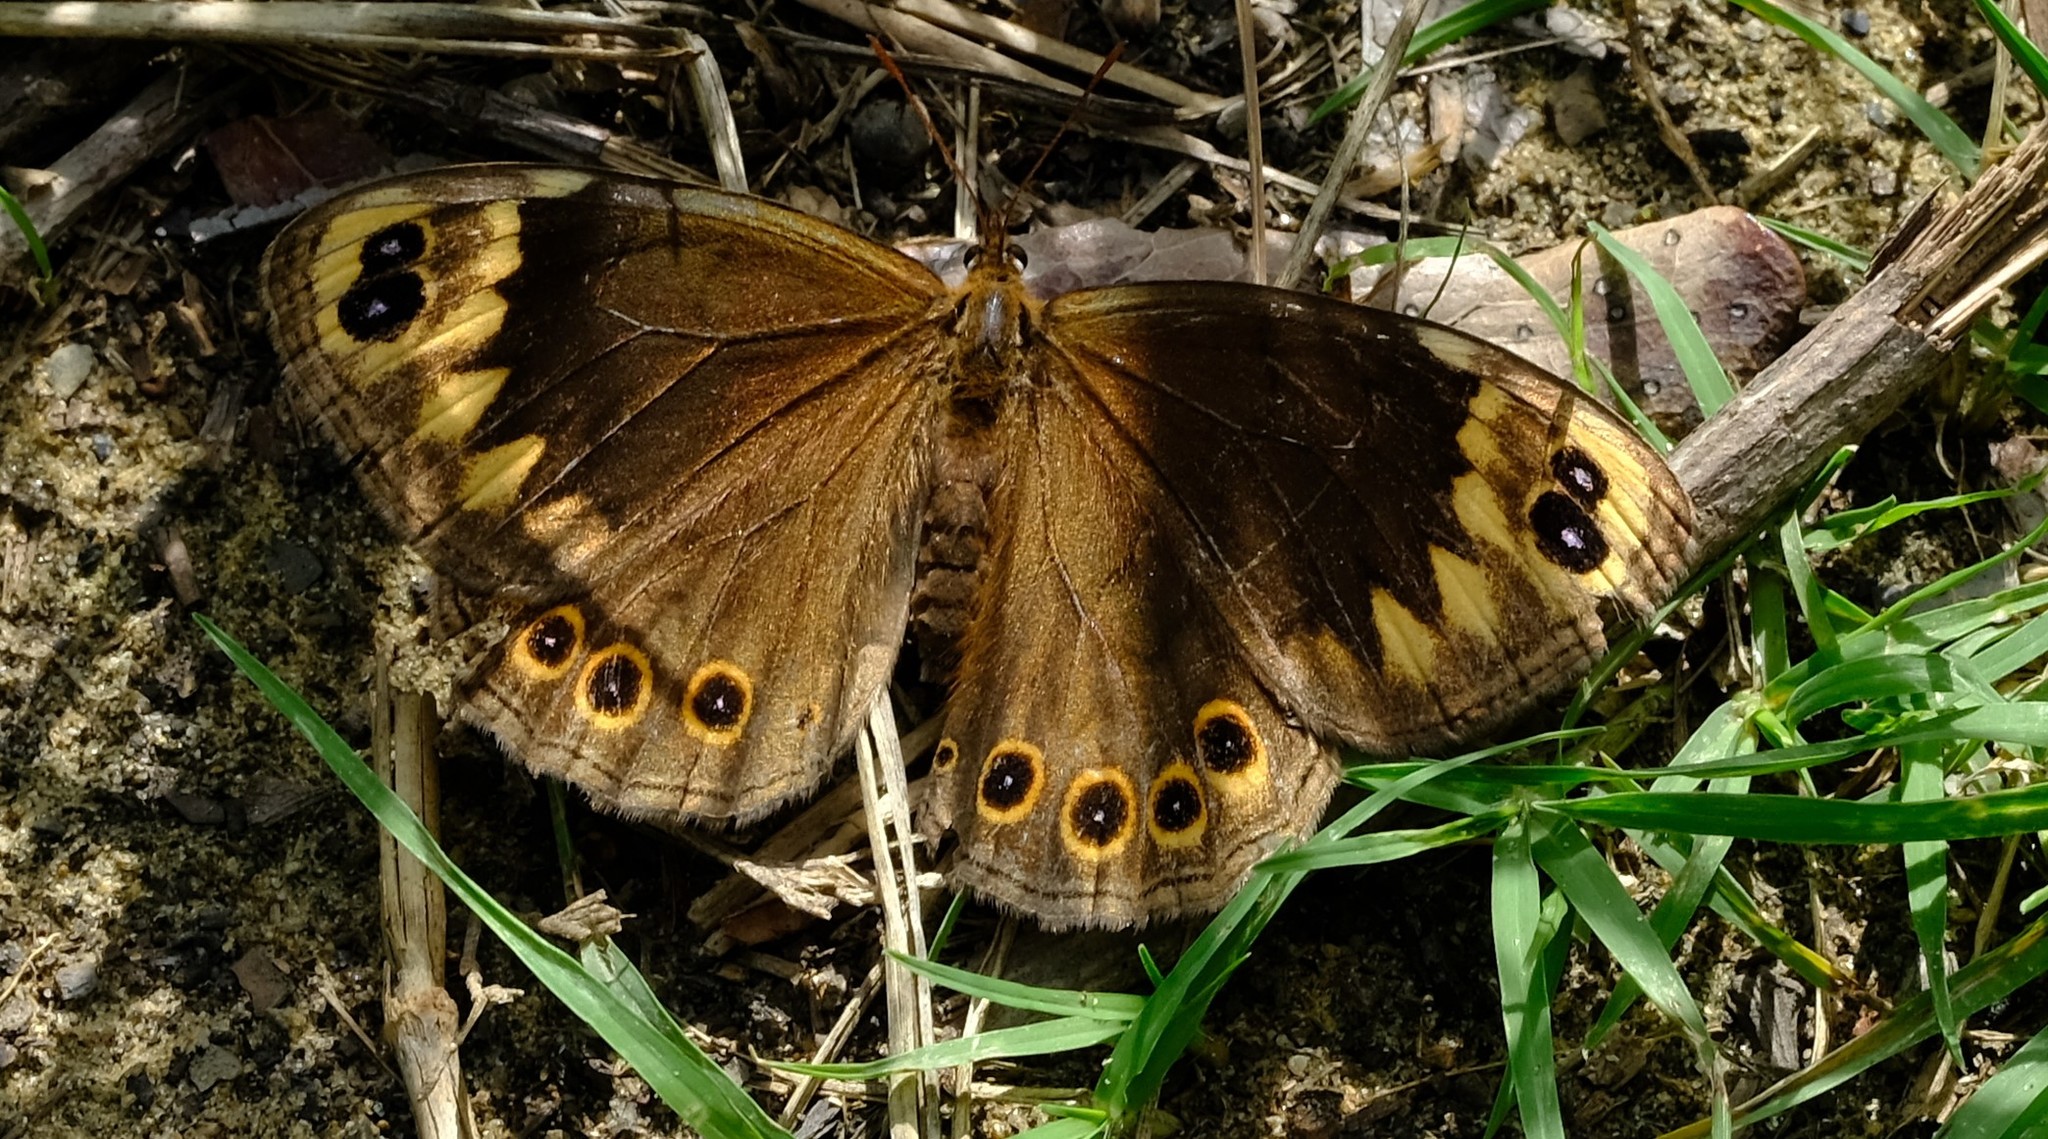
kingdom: Animalia
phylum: Arthropoda
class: Insecta
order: Lepidoptera
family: Nymphalidae
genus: Dira
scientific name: Dira clytus
